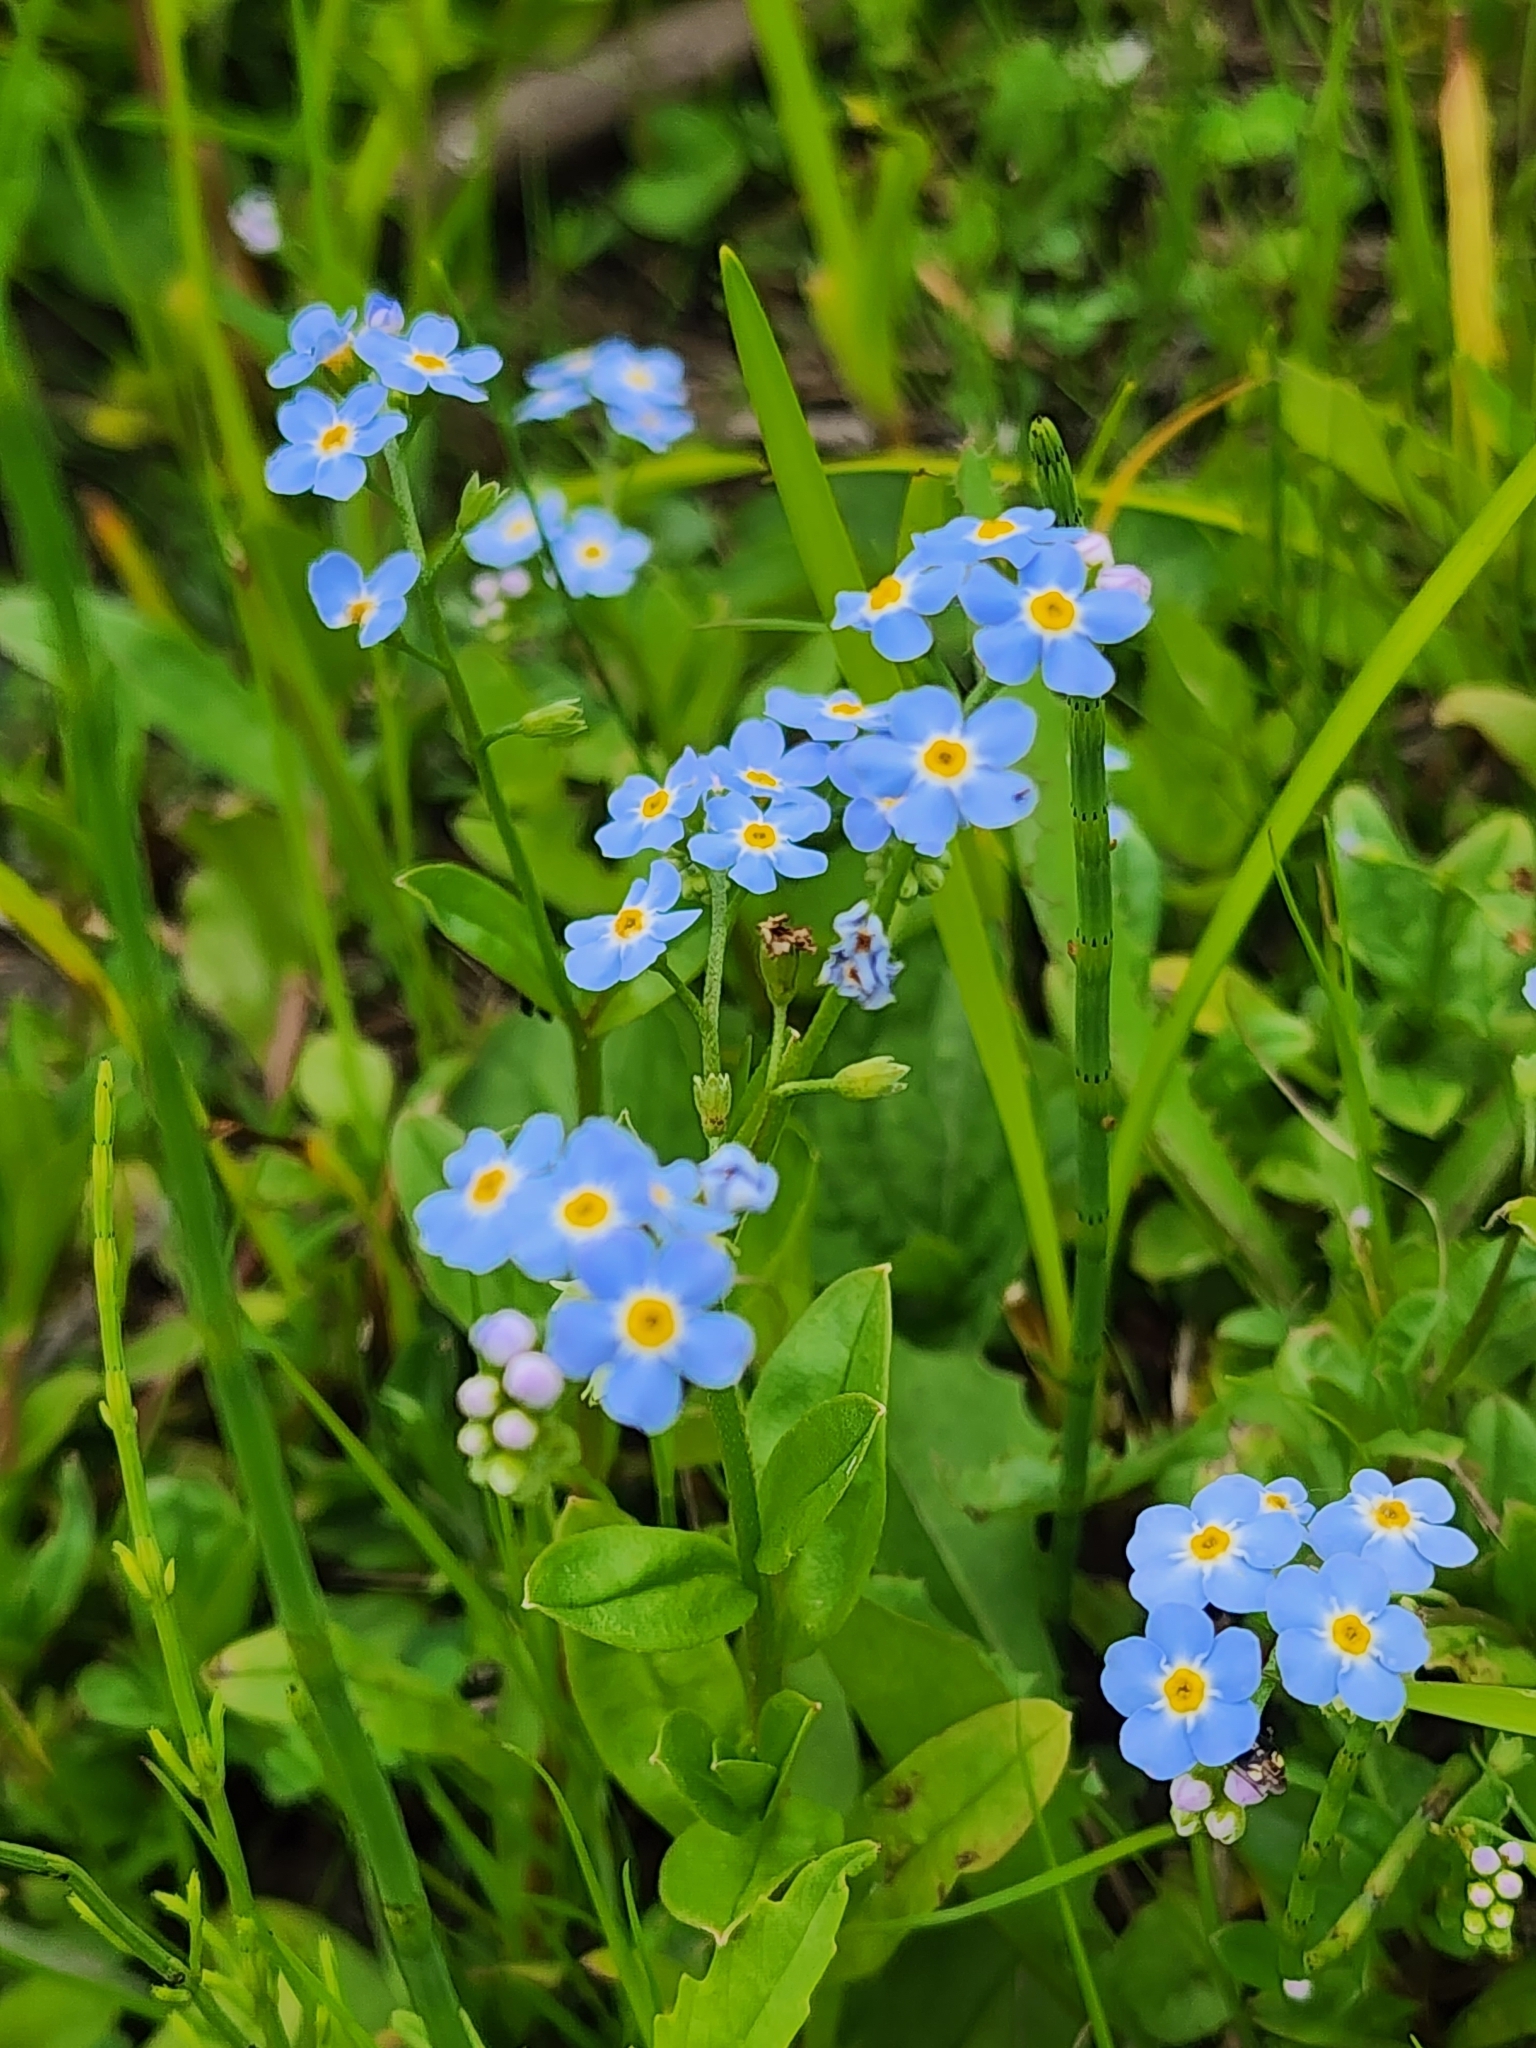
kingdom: Plantae
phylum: Tracheophyta
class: Magnoliopsida
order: Boraginales
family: Boraginaceae
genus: Myosotis
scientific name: Myosotis scorpioides
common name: Water forget-me-not
